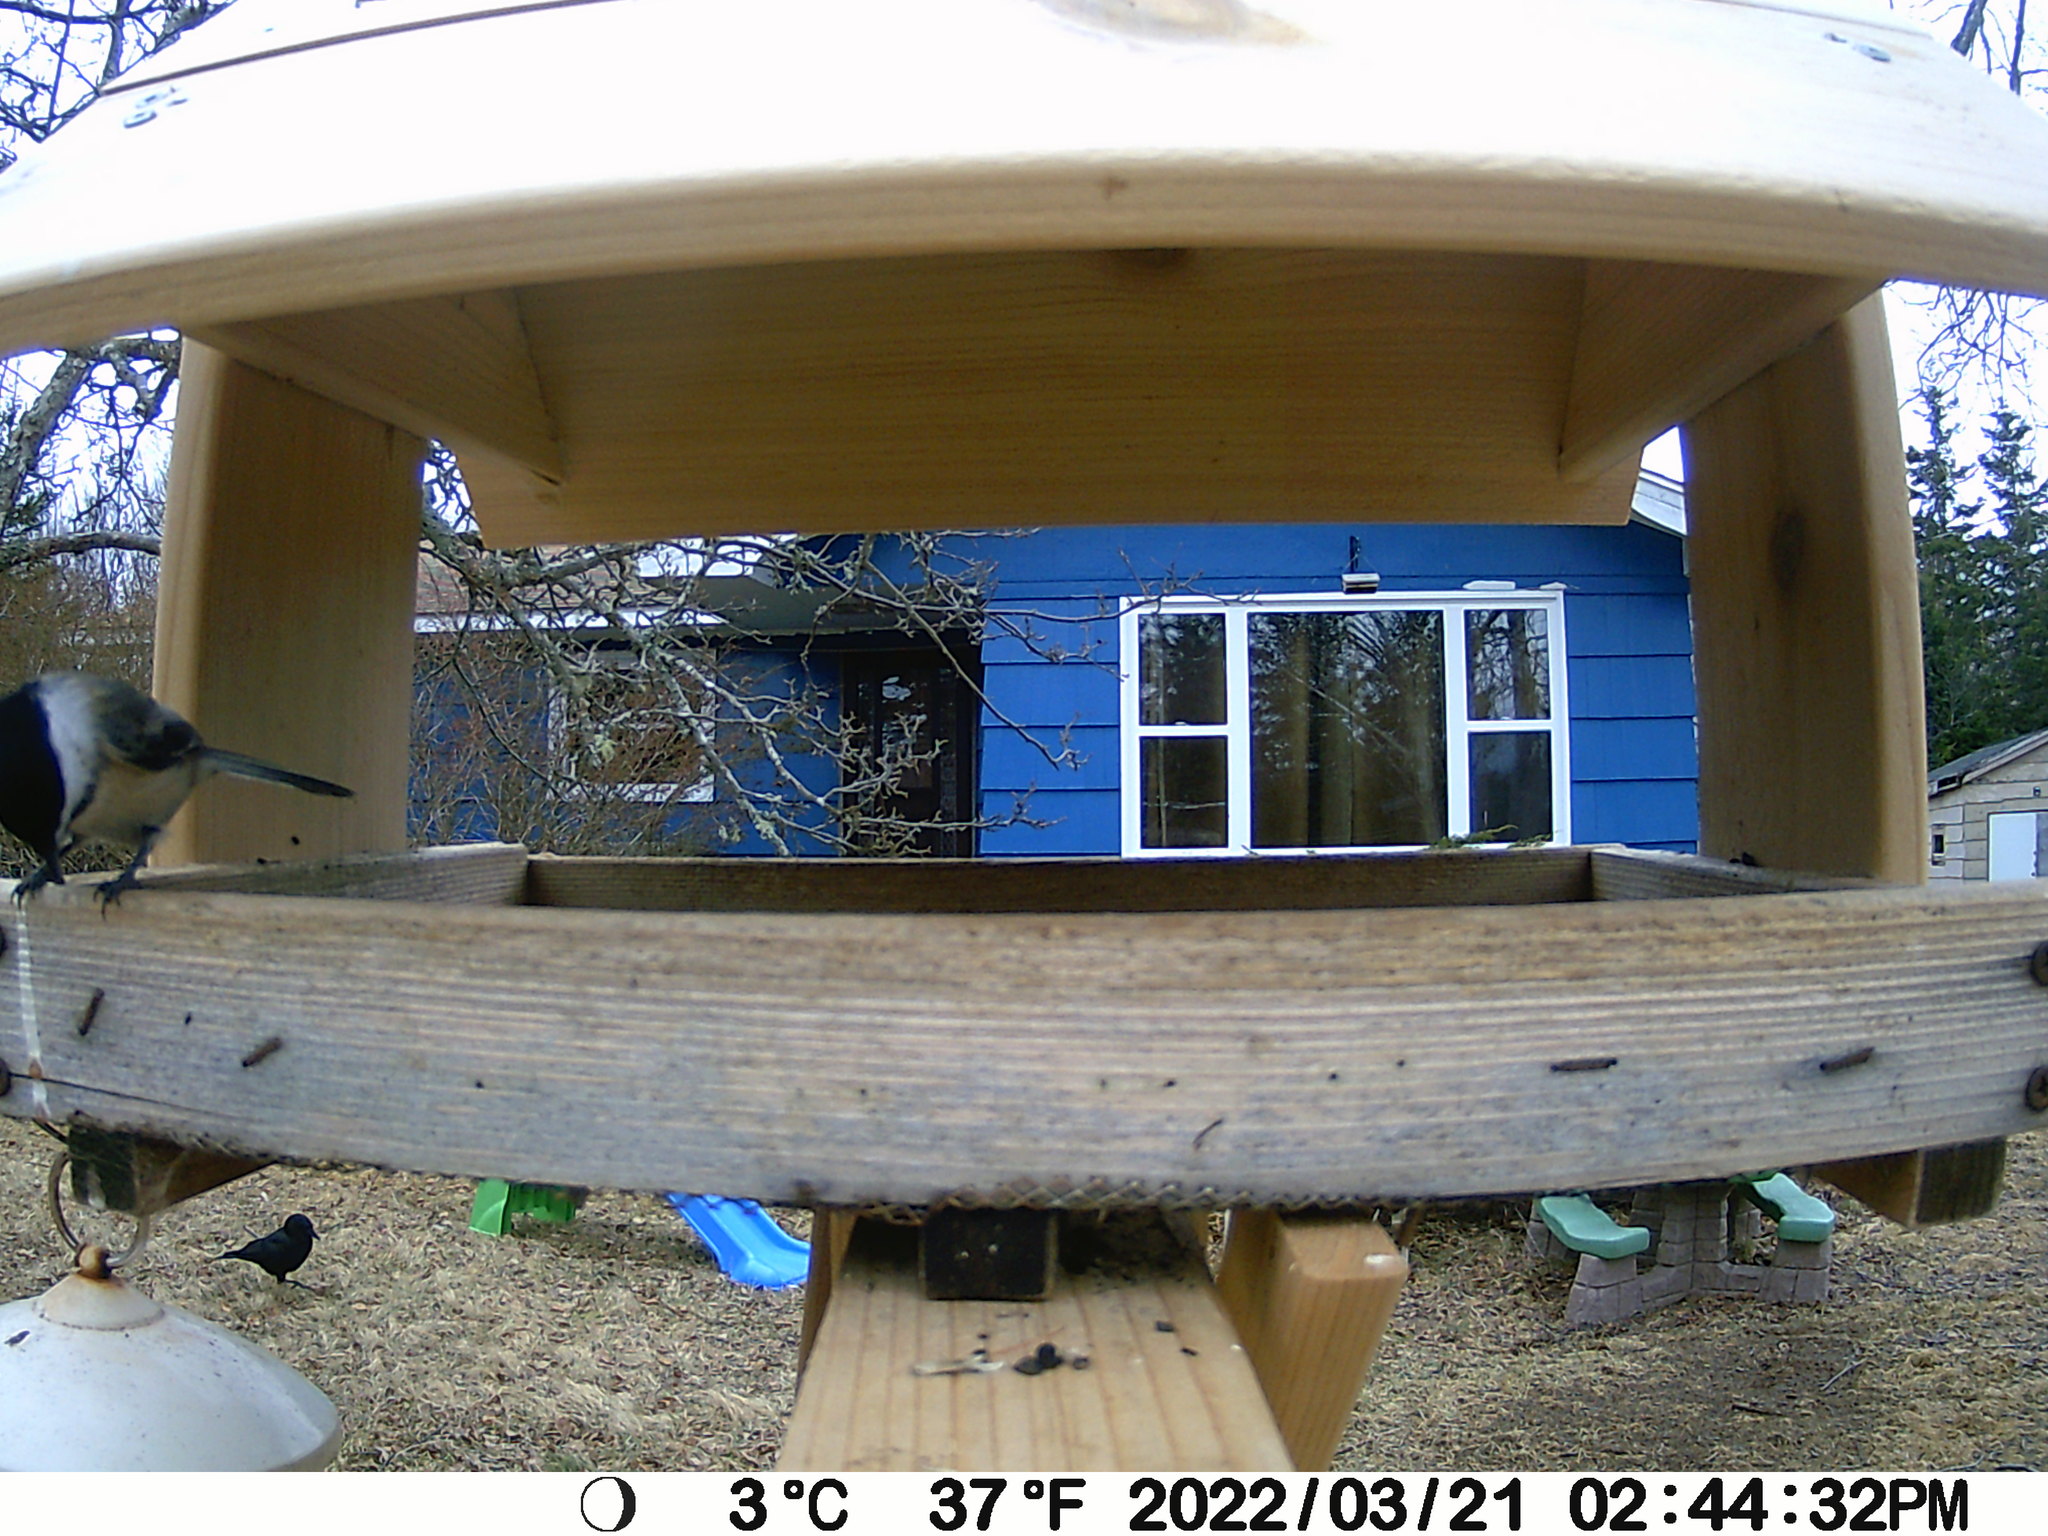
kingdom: Animalia
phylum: Chordata
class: Aves
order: Passeriformes
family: Corvidae
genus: Corvus
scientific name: Corvus brachyrhynchos
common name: American crow
